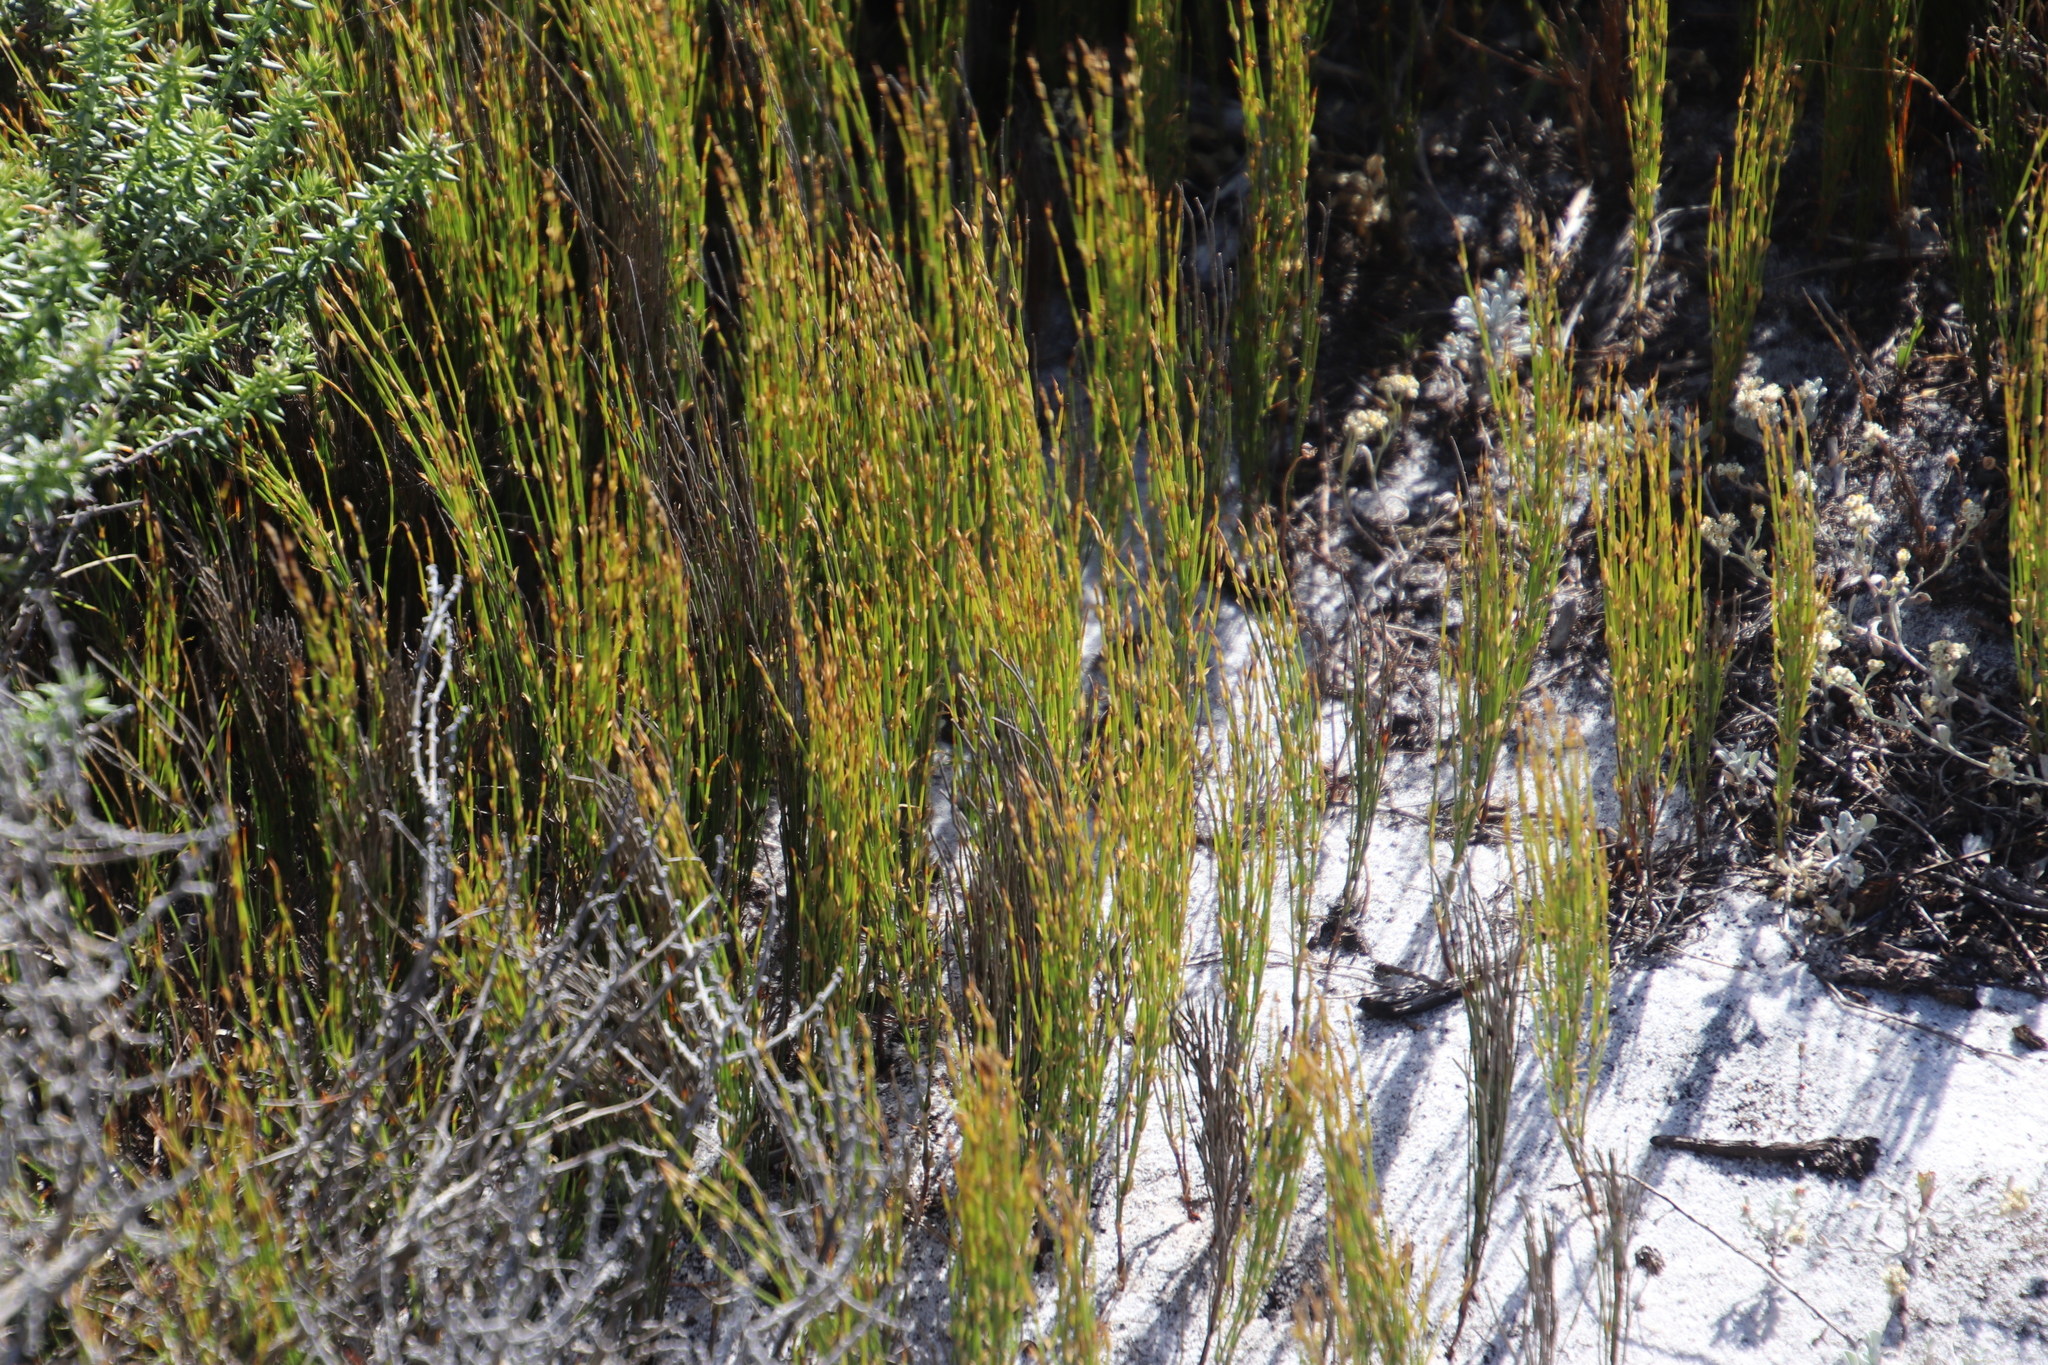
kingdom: Plantae
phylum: Tracheophyta
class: Liliopsida
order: Poales
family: Restionaceae
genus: Restio
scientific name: Restio eleocharis
